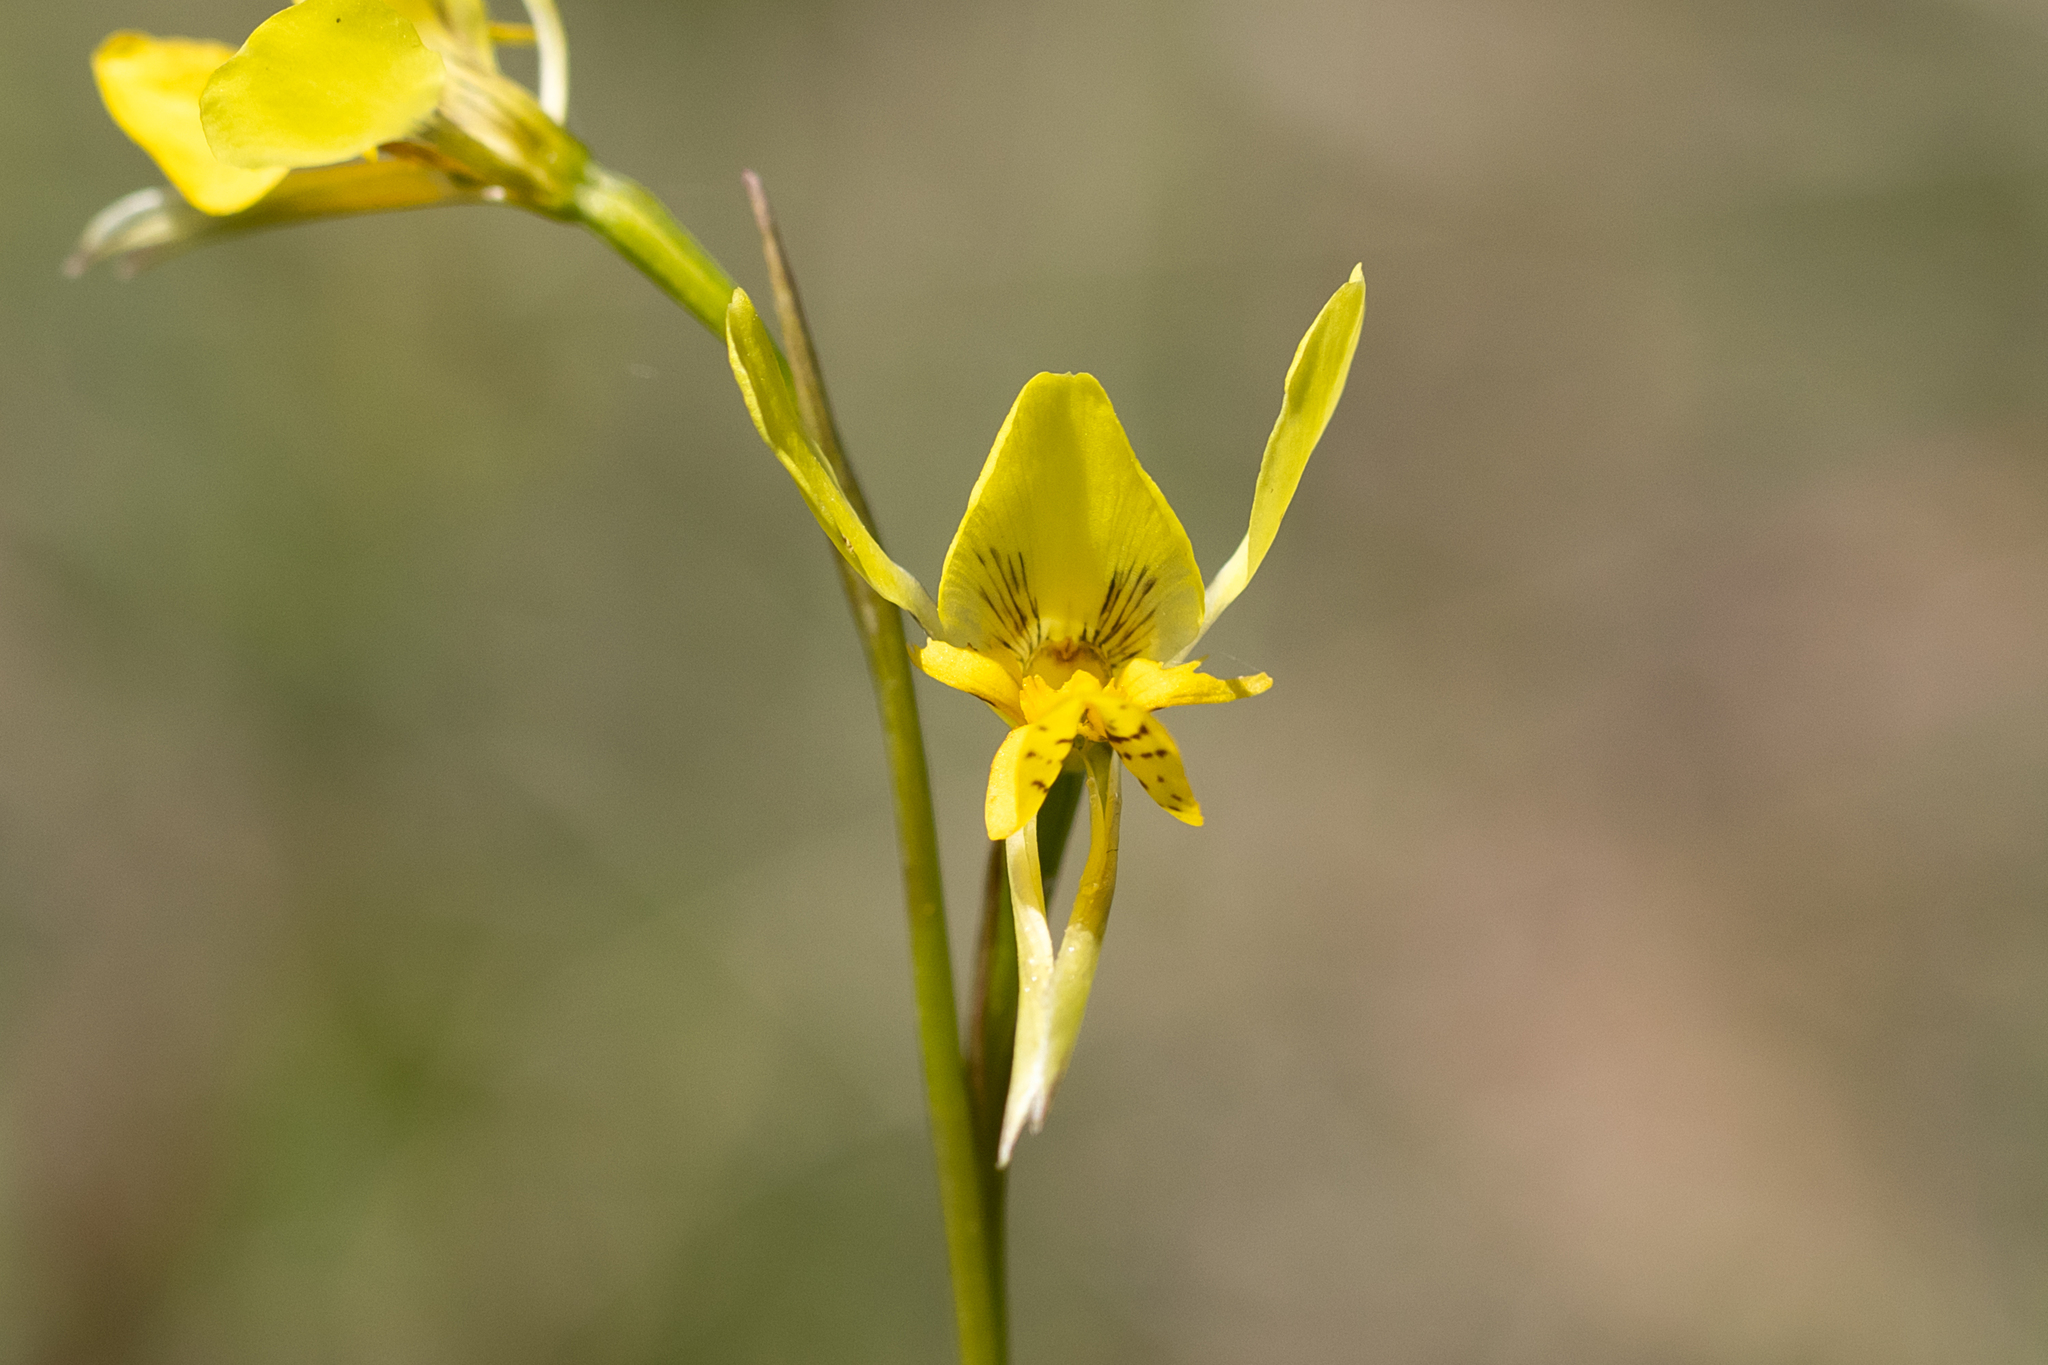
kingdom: Plantae
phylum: Tracheophyta
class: Liliopsida
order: Asparagales
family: Orchidaceae
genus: Diuris
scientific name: Diuris behrii
